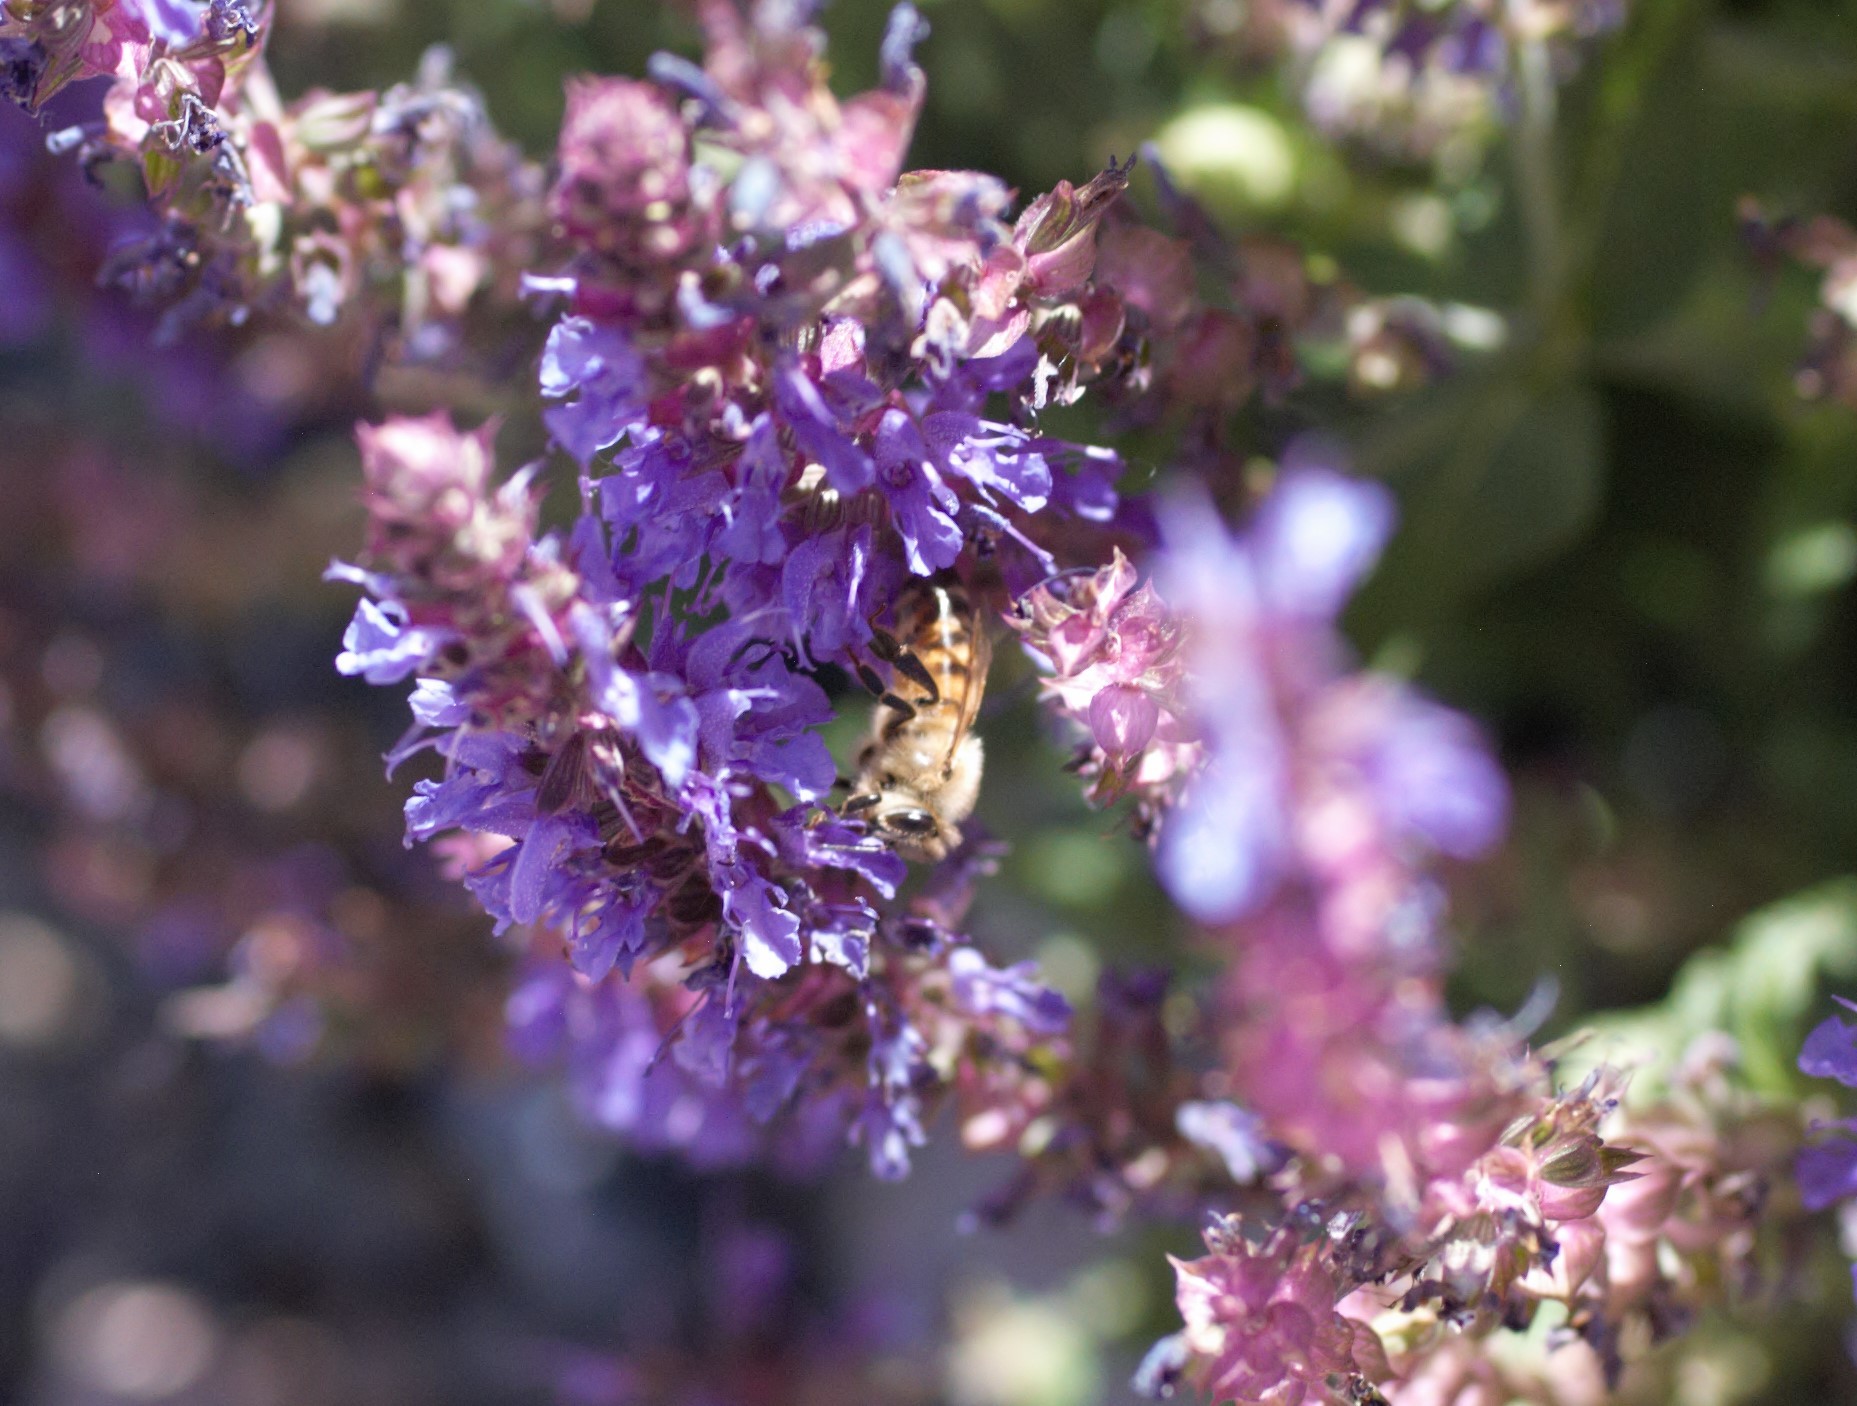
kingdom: Animalia
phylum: Arthropoda
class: Insecta
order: Hymenoptera
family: Apidae
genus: Apis
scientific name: Apis mellifera
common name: Honey bee
